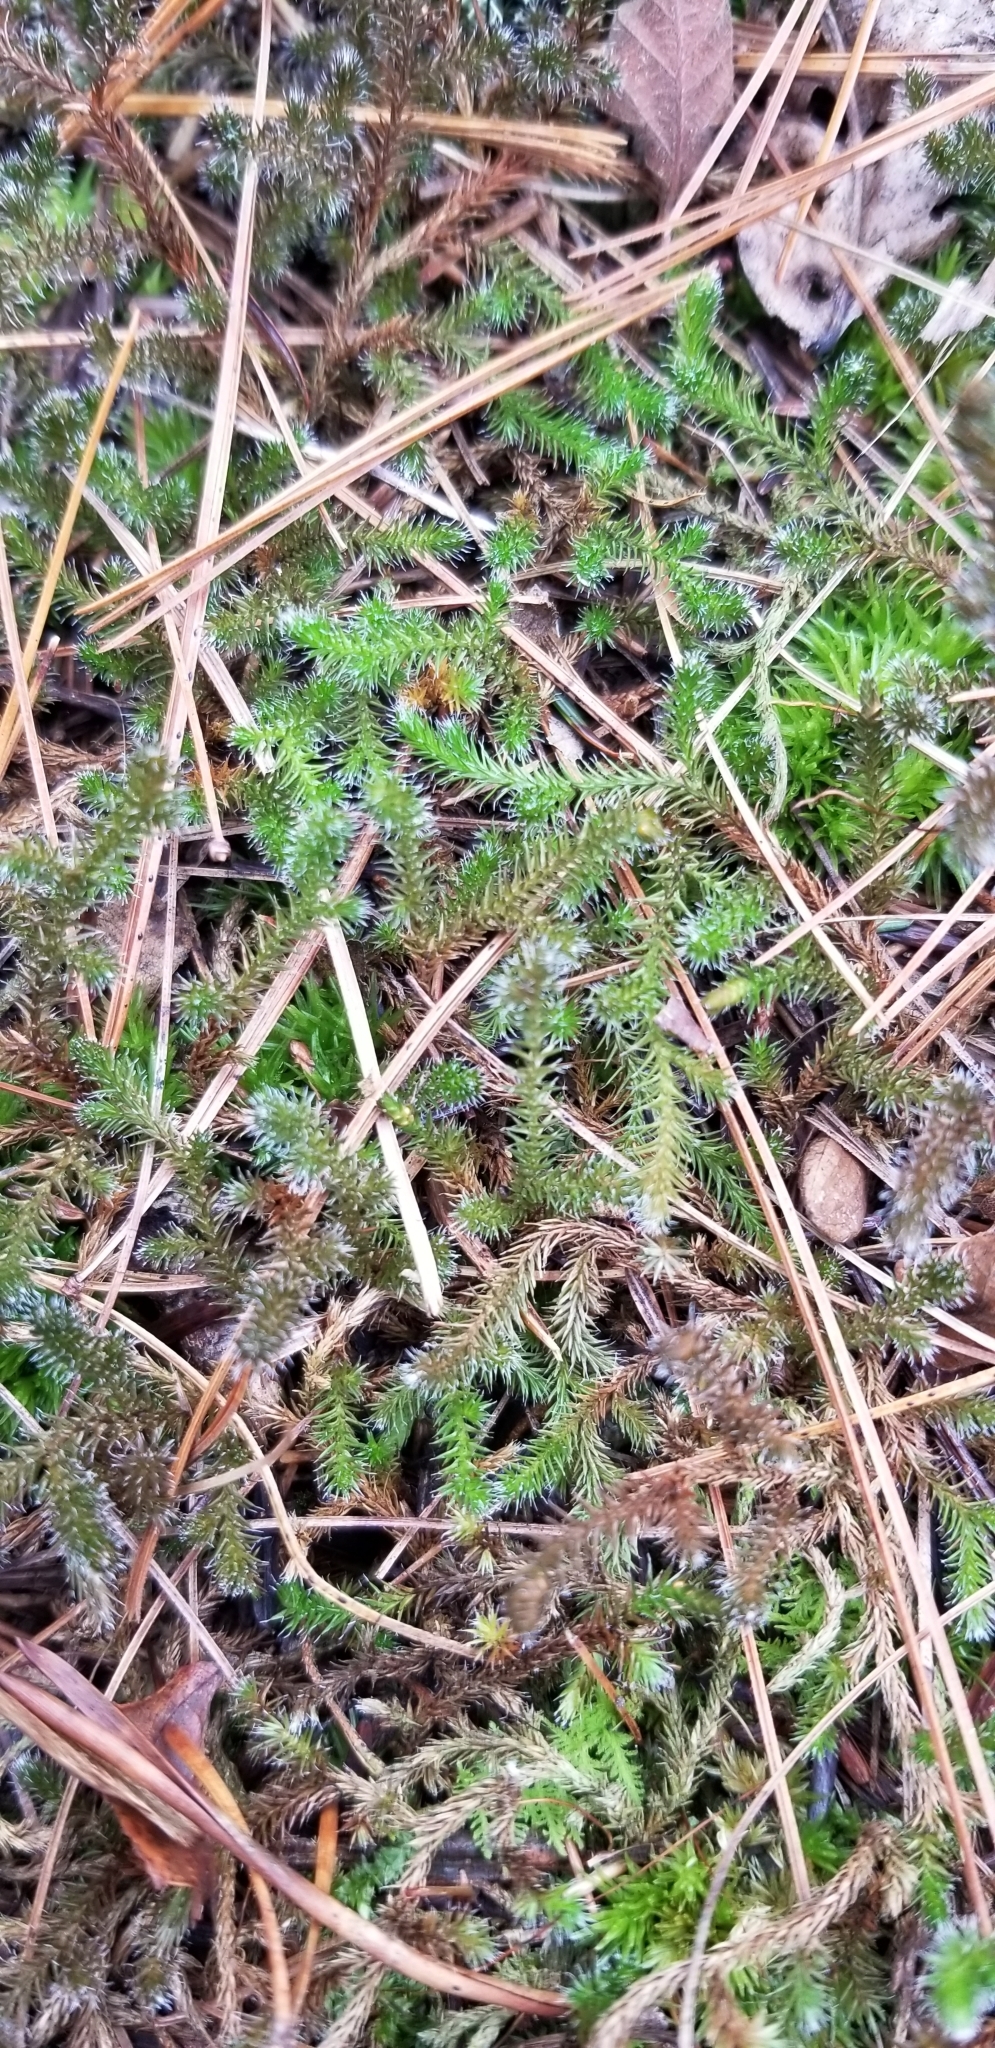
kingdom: Plantae
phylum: Tracheophyta
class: Lycopodiopsida
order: Selaginellales
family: Selaginellaceae
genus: Selaginella
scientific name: Selaginella rupestris
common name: Dwarf spikemoss
